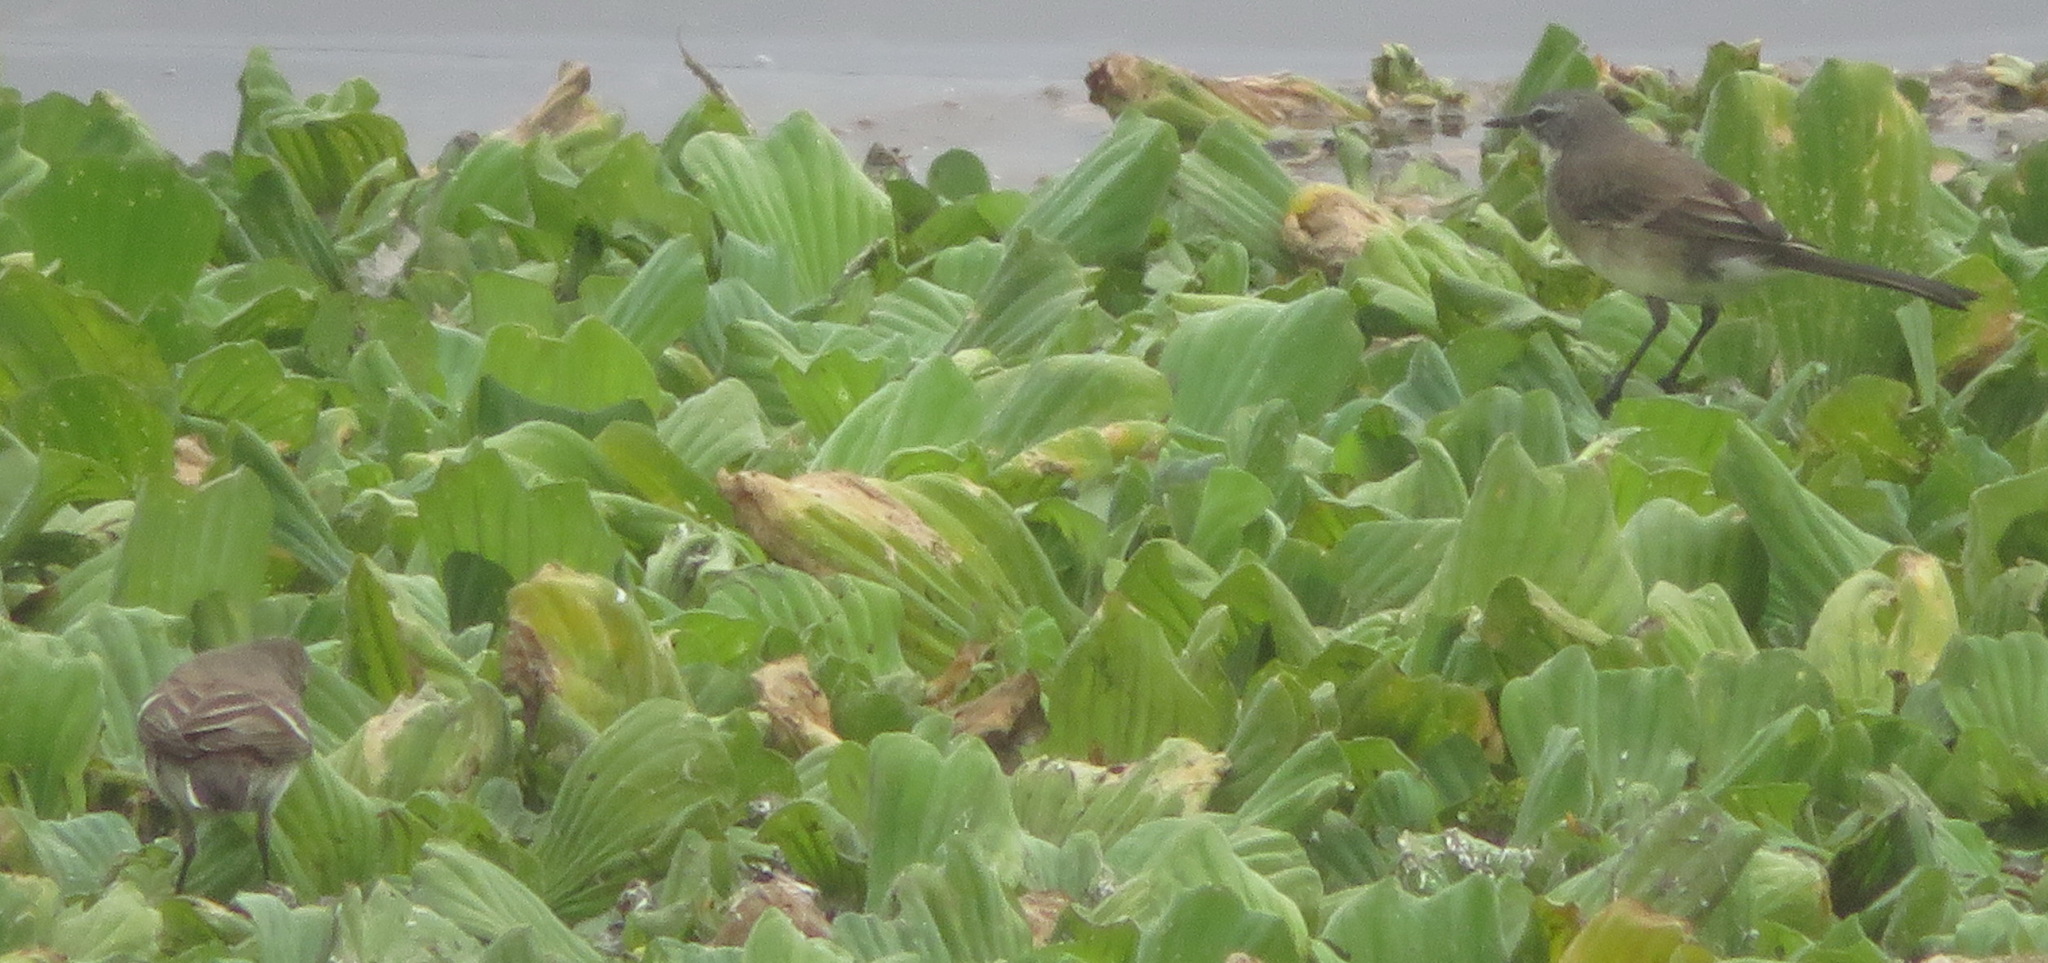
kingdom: Animalia
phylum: Chordata
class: Aves
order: Passeriformes
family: Motacillidae
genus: Motacilla
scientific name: Motacilla capensis
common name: Cape wagtail
